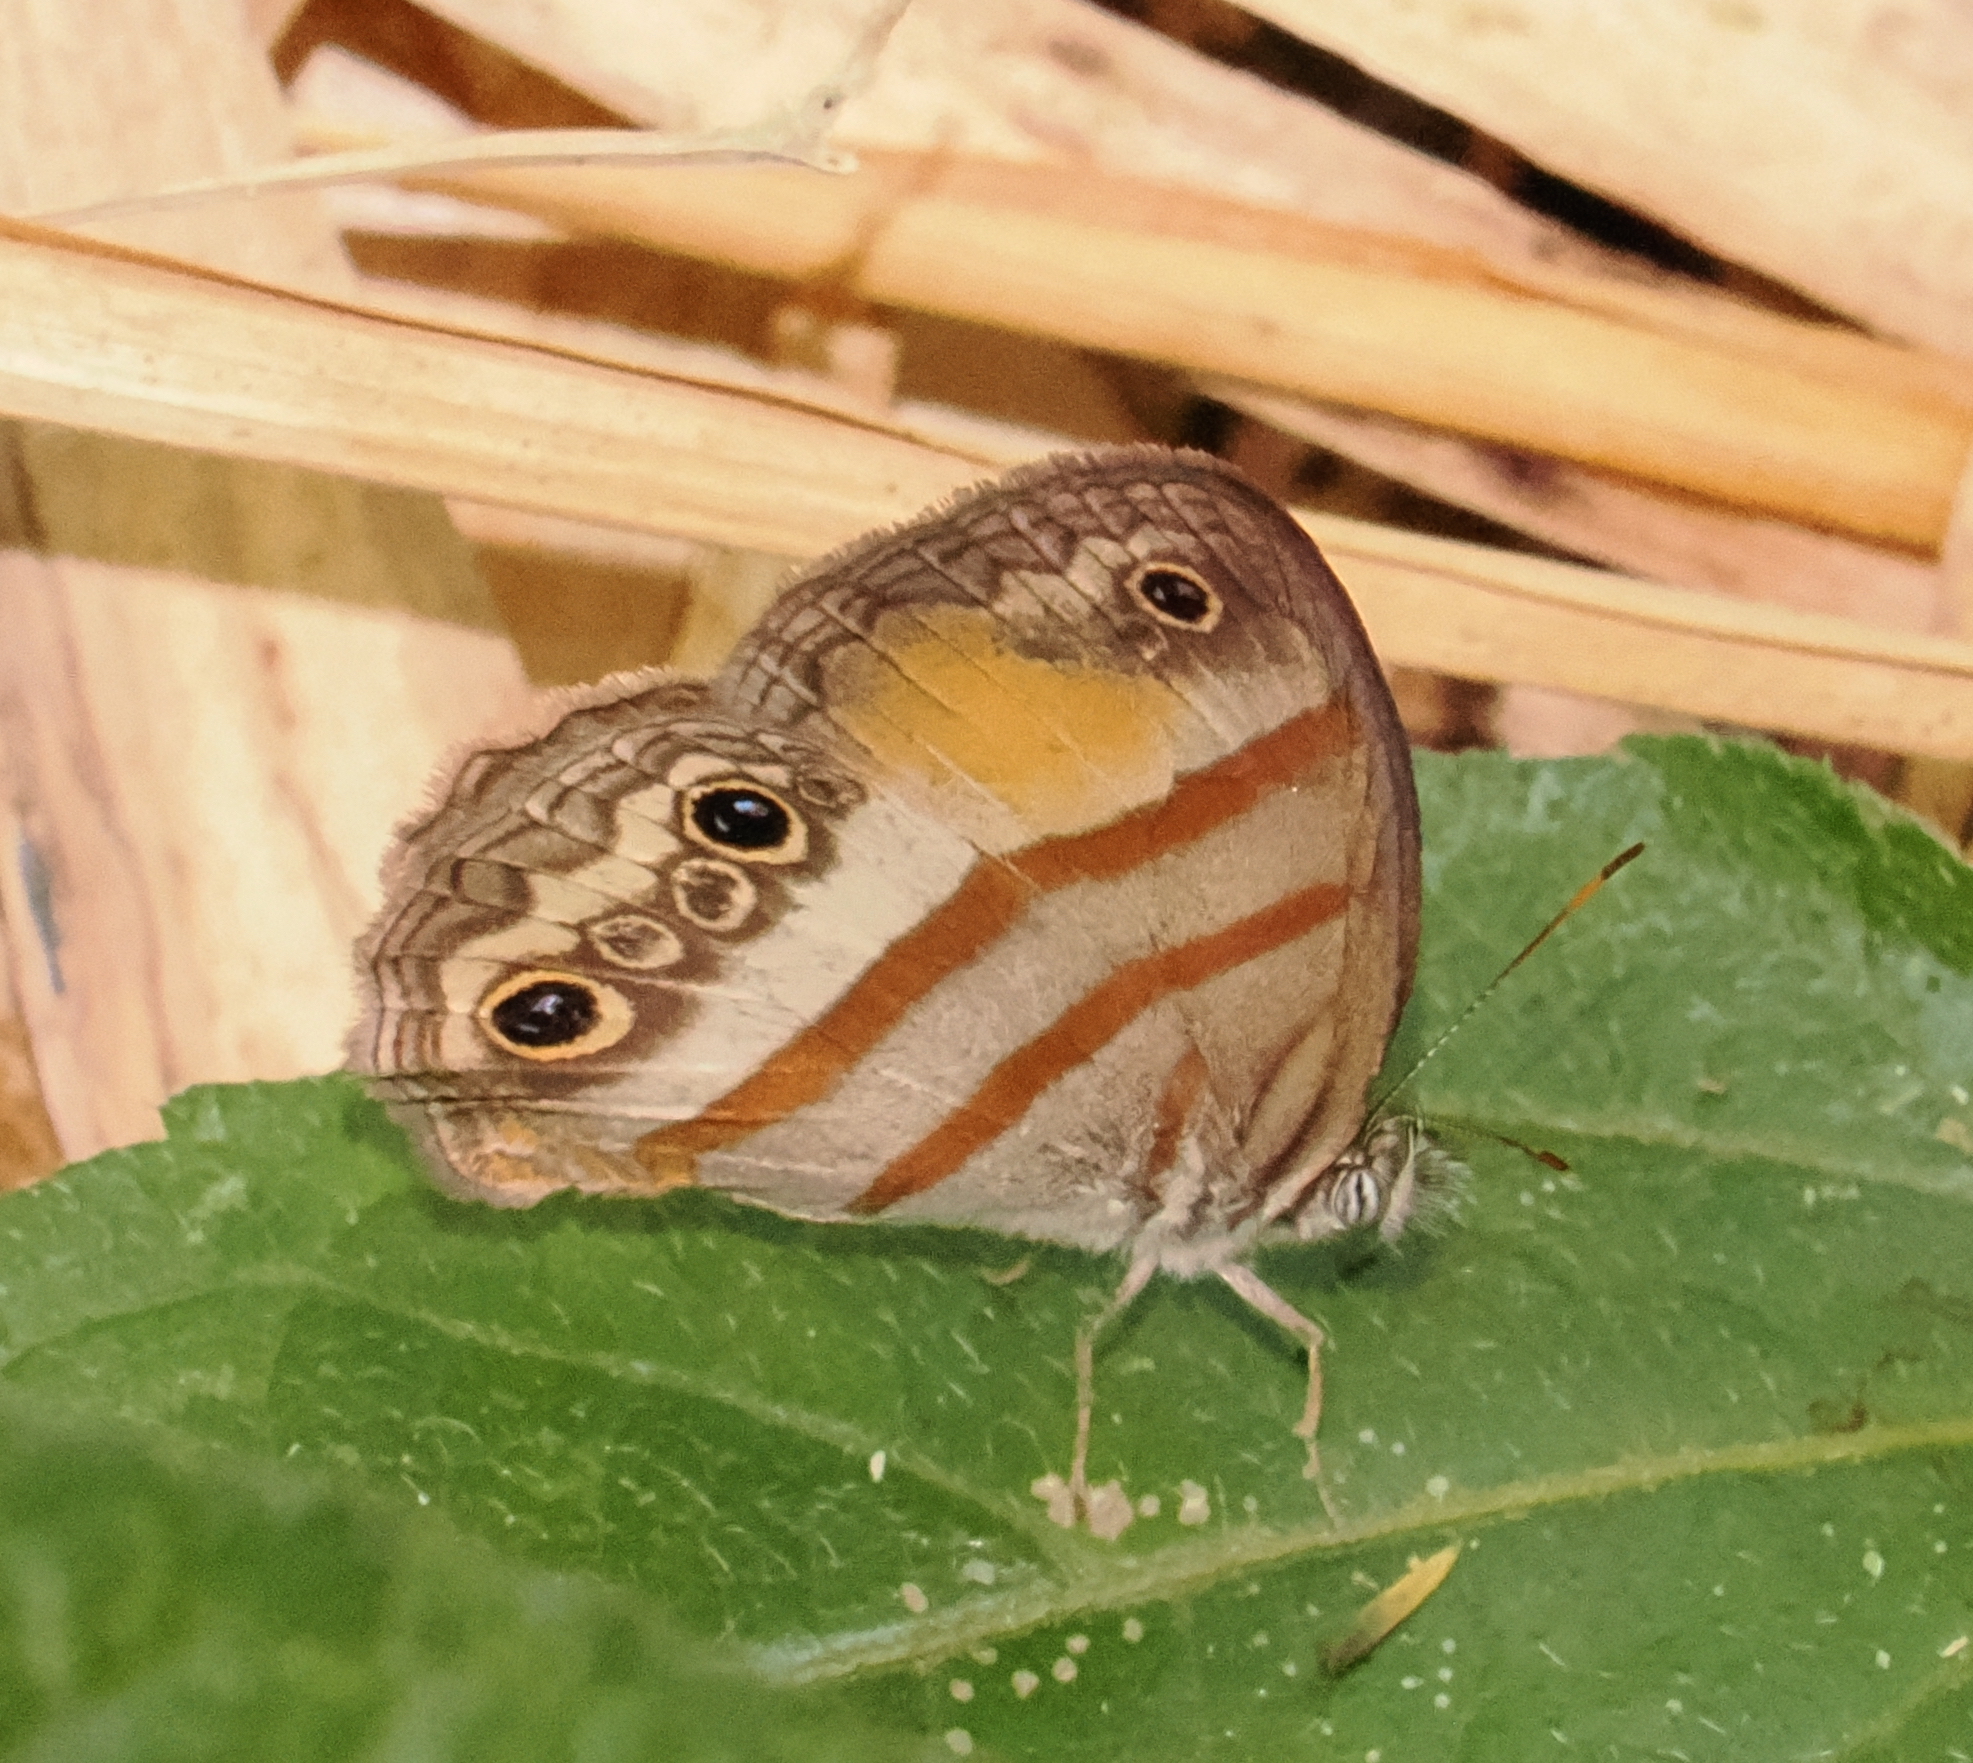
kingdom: Animalia
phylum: Arthropoda
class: Insecta
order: Lepidoptera
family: Nymphalidae
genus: Paryphthimoides
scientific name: Paryphthimoides
